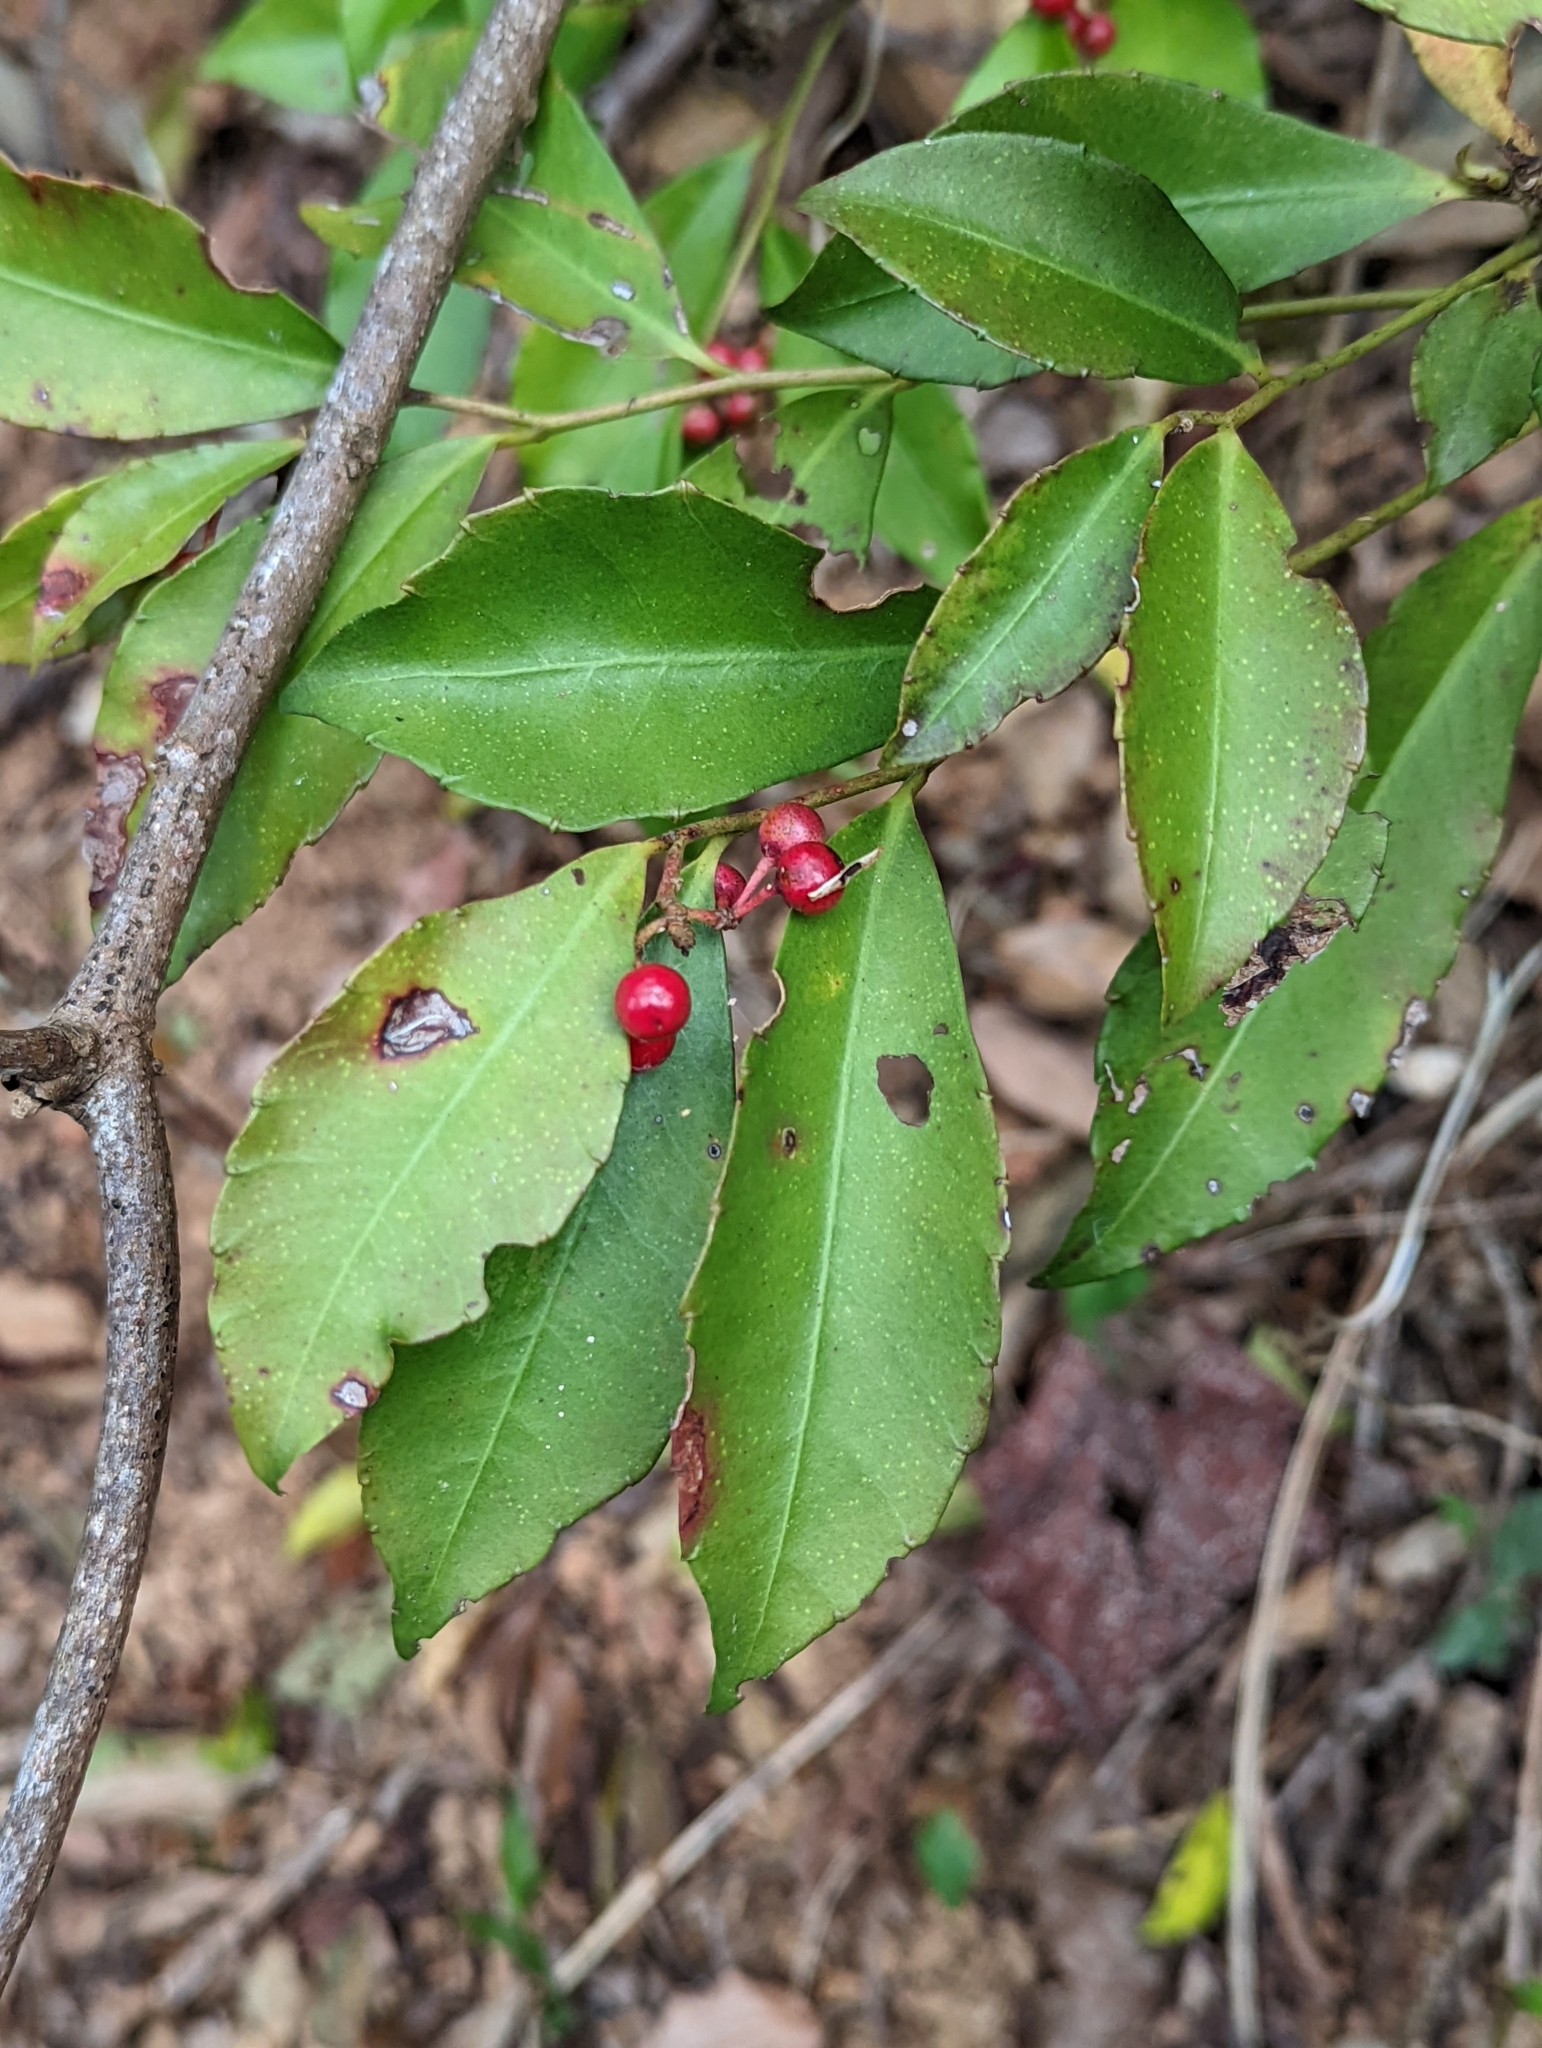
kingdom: Plantae
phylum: Tracheophyta
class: Magnoliopsida
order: Ericales
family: Primulaceae
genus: Ardisia
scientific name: Ardisia cornudentata
